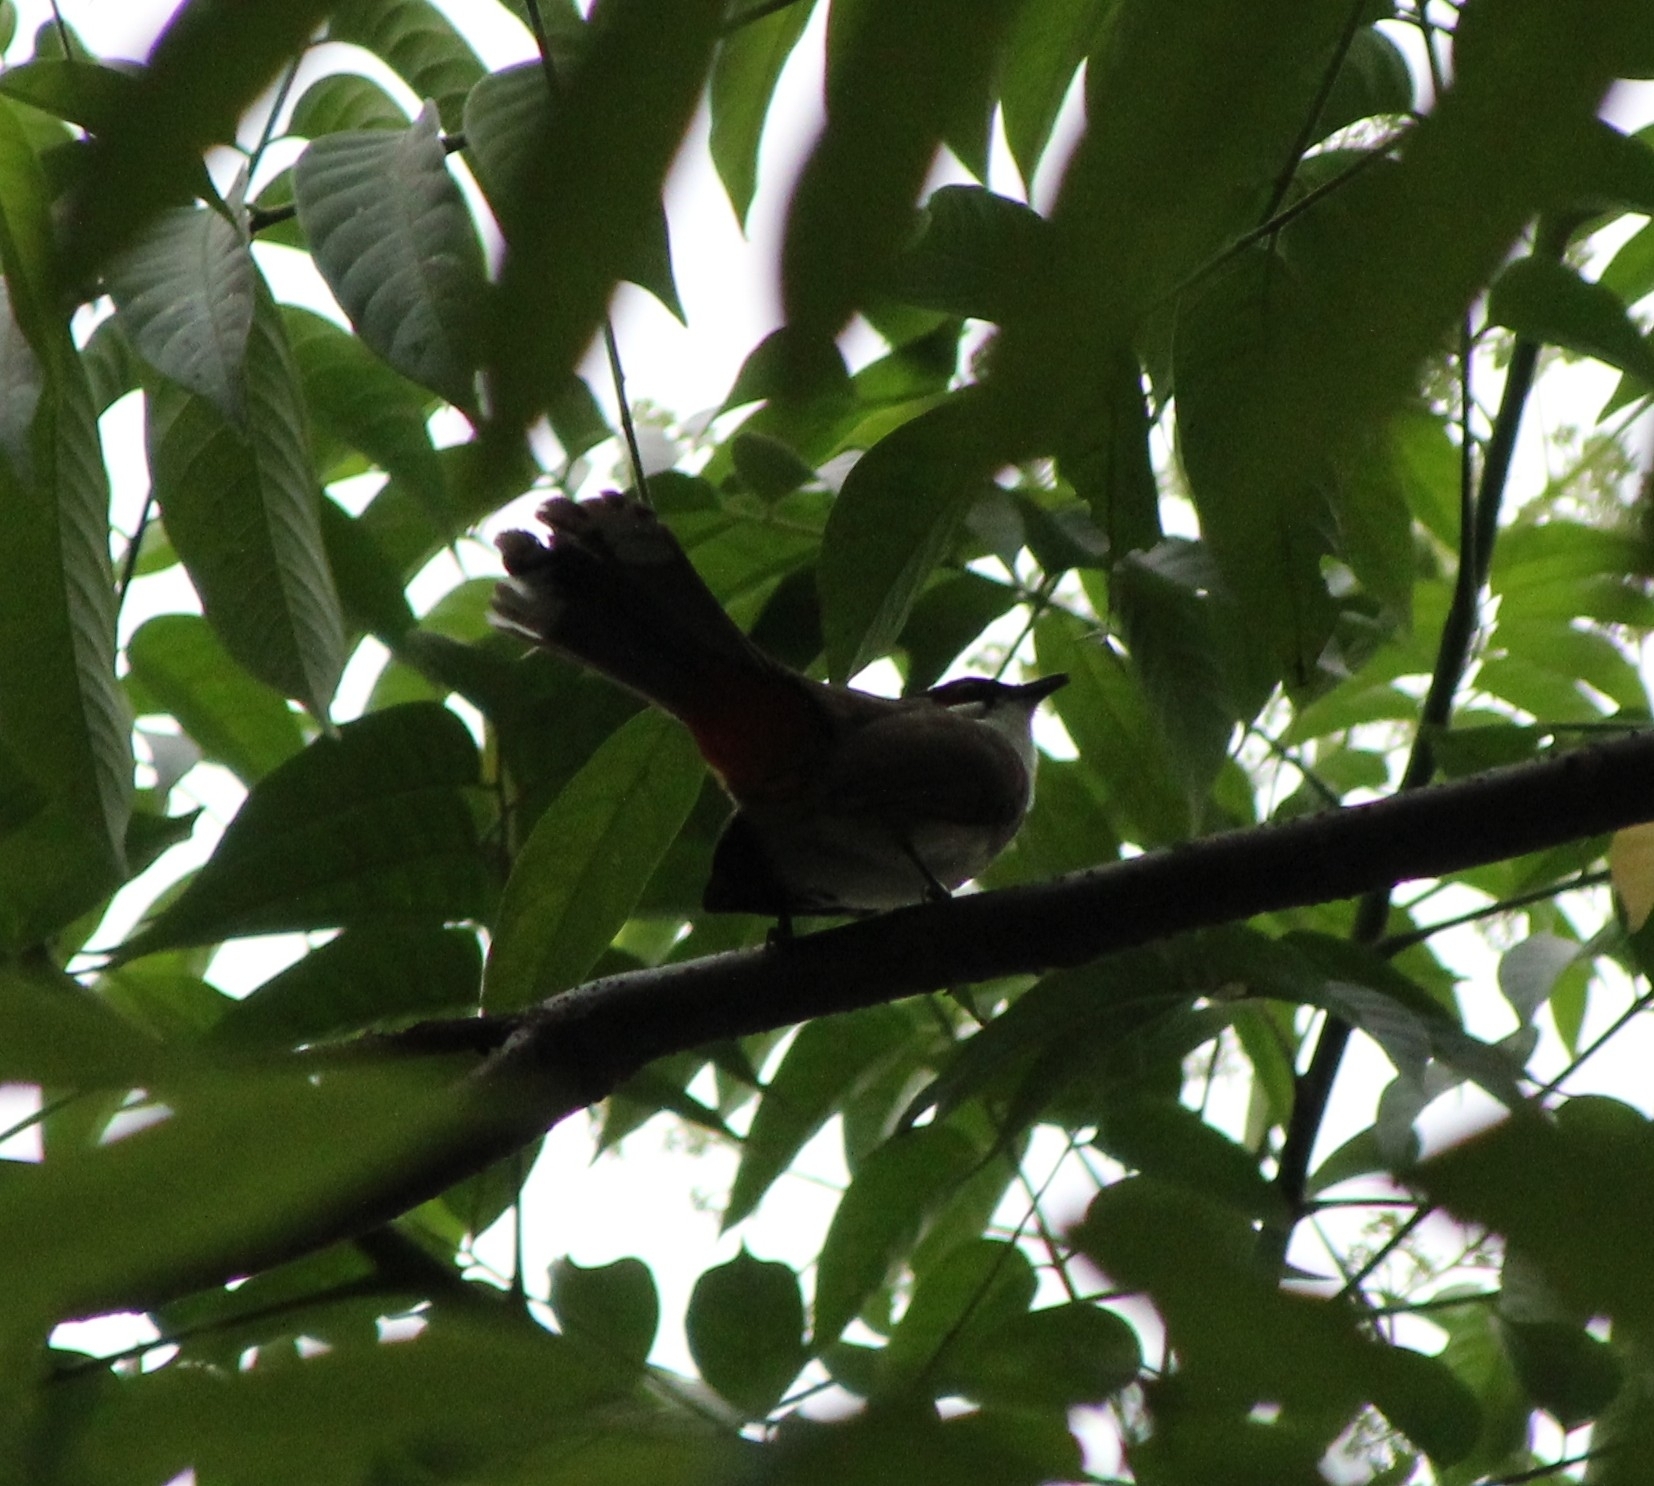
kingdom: Animalia
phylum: Chordata
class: Aves
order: Passeriformes
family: Pycnonotidae
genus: Pycnonotus
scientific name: Pycnonotus jocosus
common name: Red-whiskered bulbul
